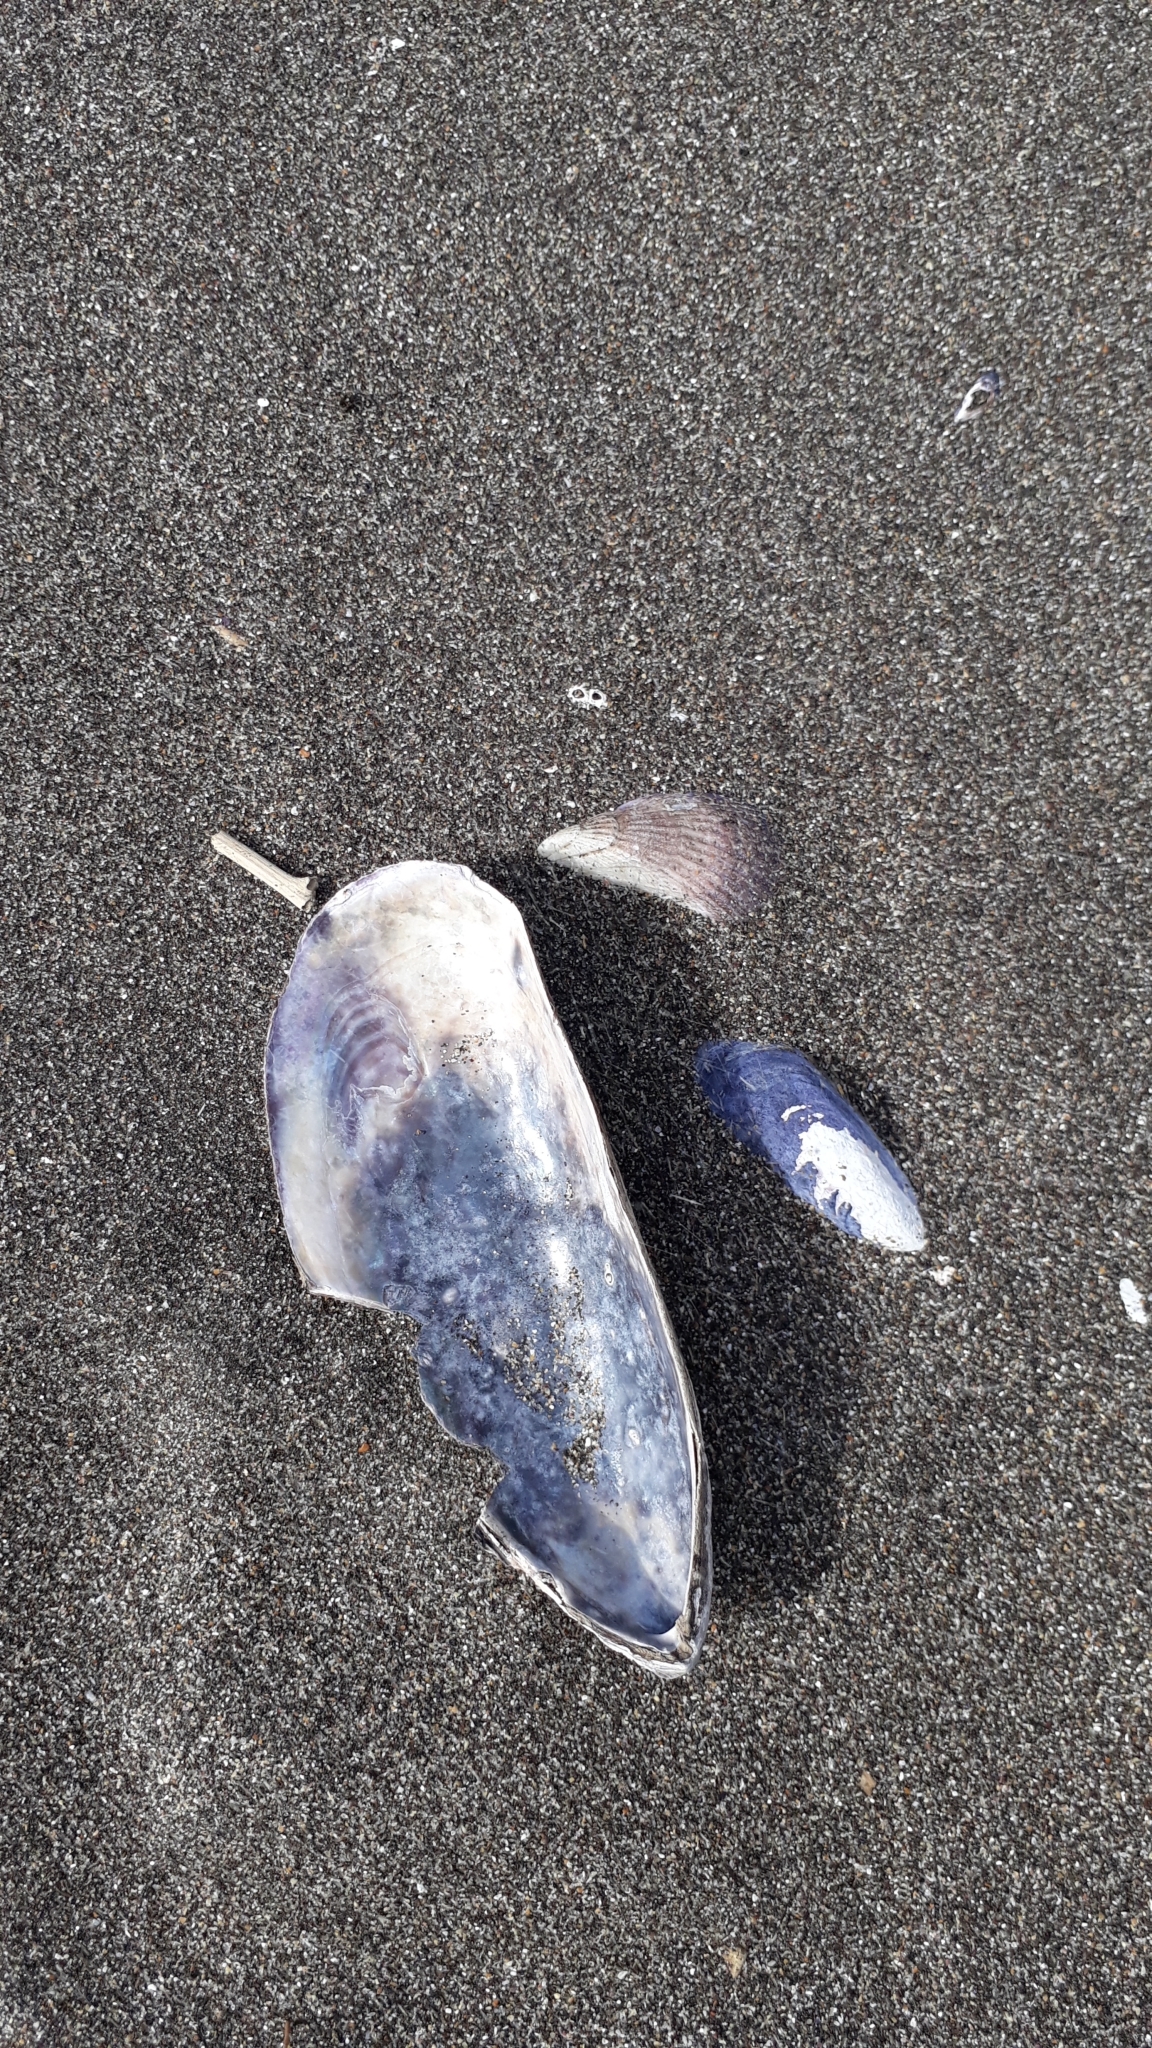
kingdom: Animalia
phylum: Mollusca
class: Bivalvia
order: Mytilida
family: Mytilidae
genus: Perna
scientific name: Perna canaliculus
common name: New zealand greenshelltm
